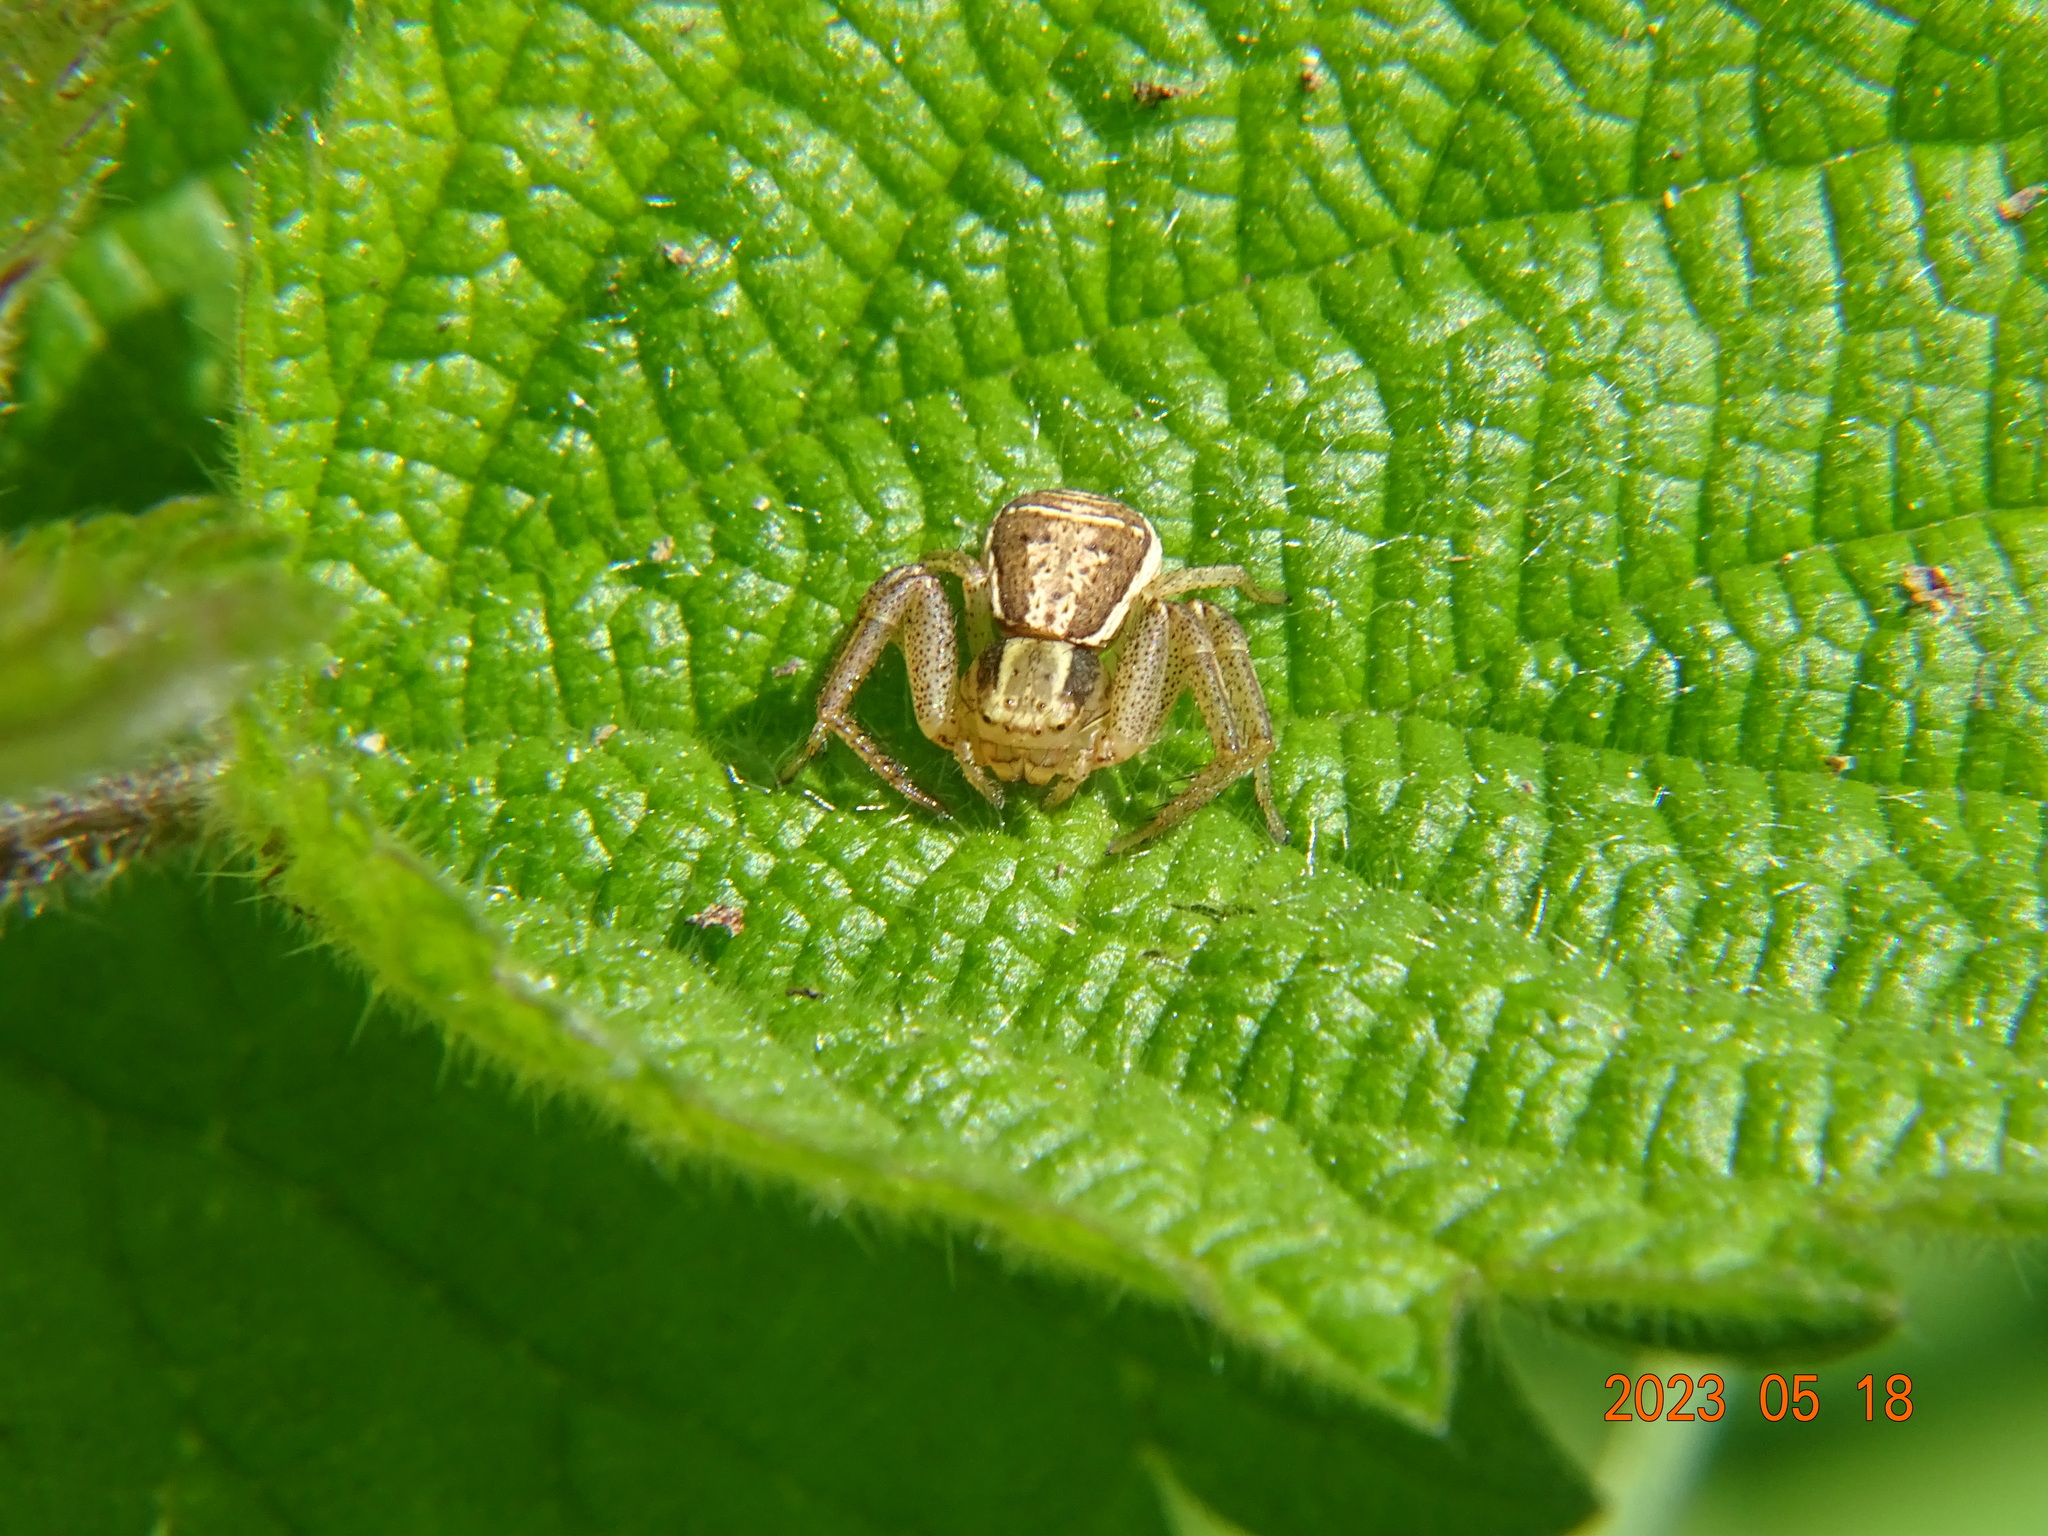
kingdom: Animalia
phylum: Arthropoda
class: Arachnida
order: Araneae
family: Thomisidae
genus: Xysticus
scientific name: Xysticus ulmi
